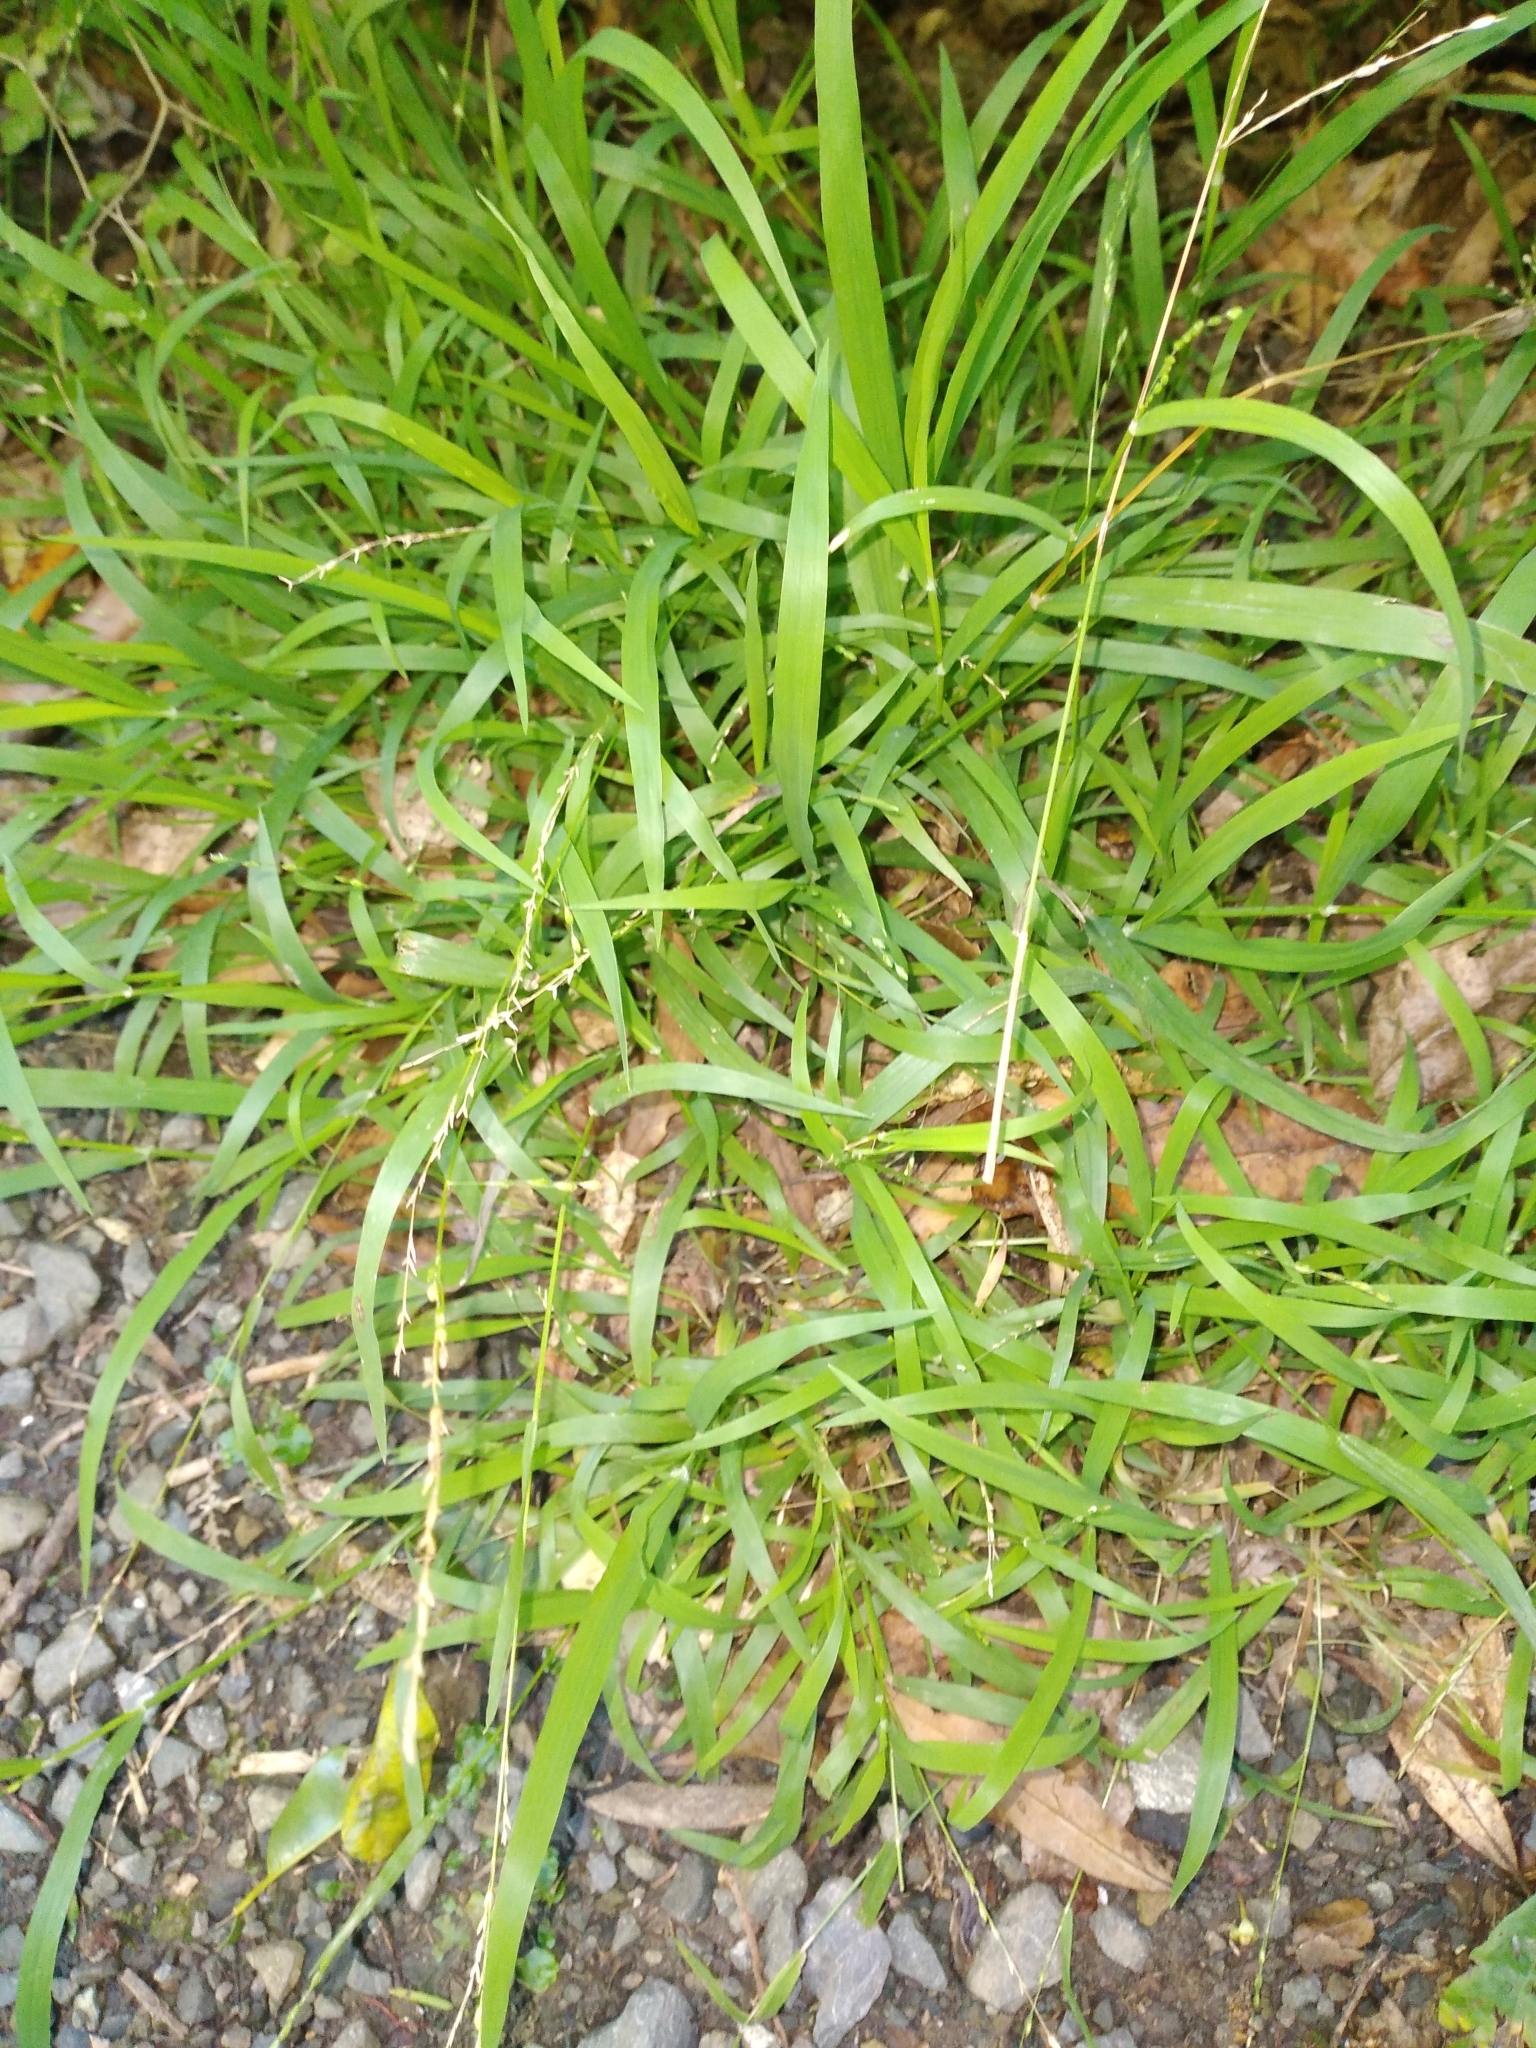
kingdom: Plantae
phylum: Tracheophyta
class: Liliopsida
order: Poales
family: Poaceae
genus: Ehrharta
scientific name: Ehrharta erecta
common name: Panic veldtgrass
